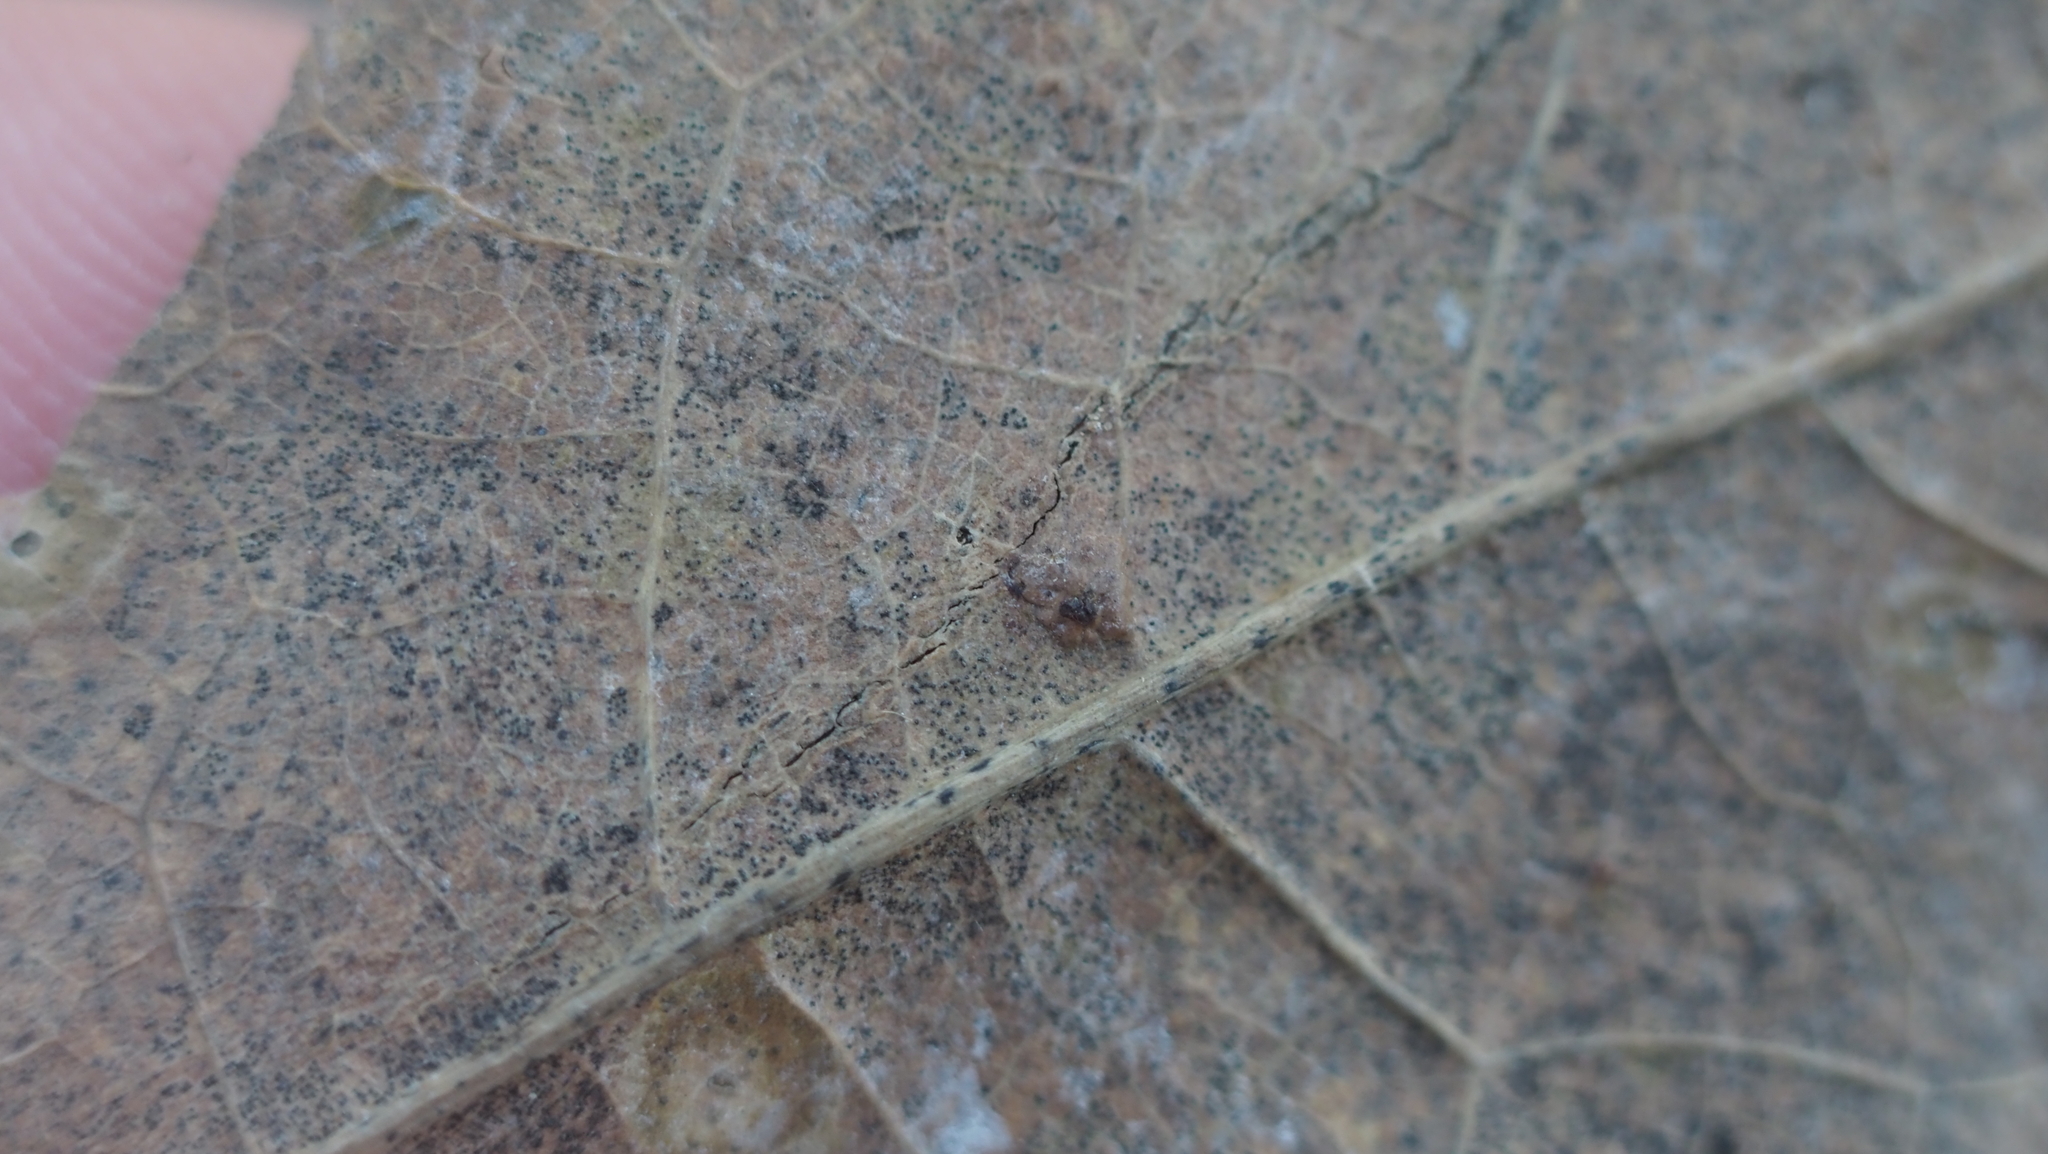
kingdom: Animalia
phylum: Arthropoda
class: Insecta
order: Diptera
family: Cecidomyiidae
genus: Polystepha
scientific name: Polystepha pilulae
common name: Oak leaf gall midge
